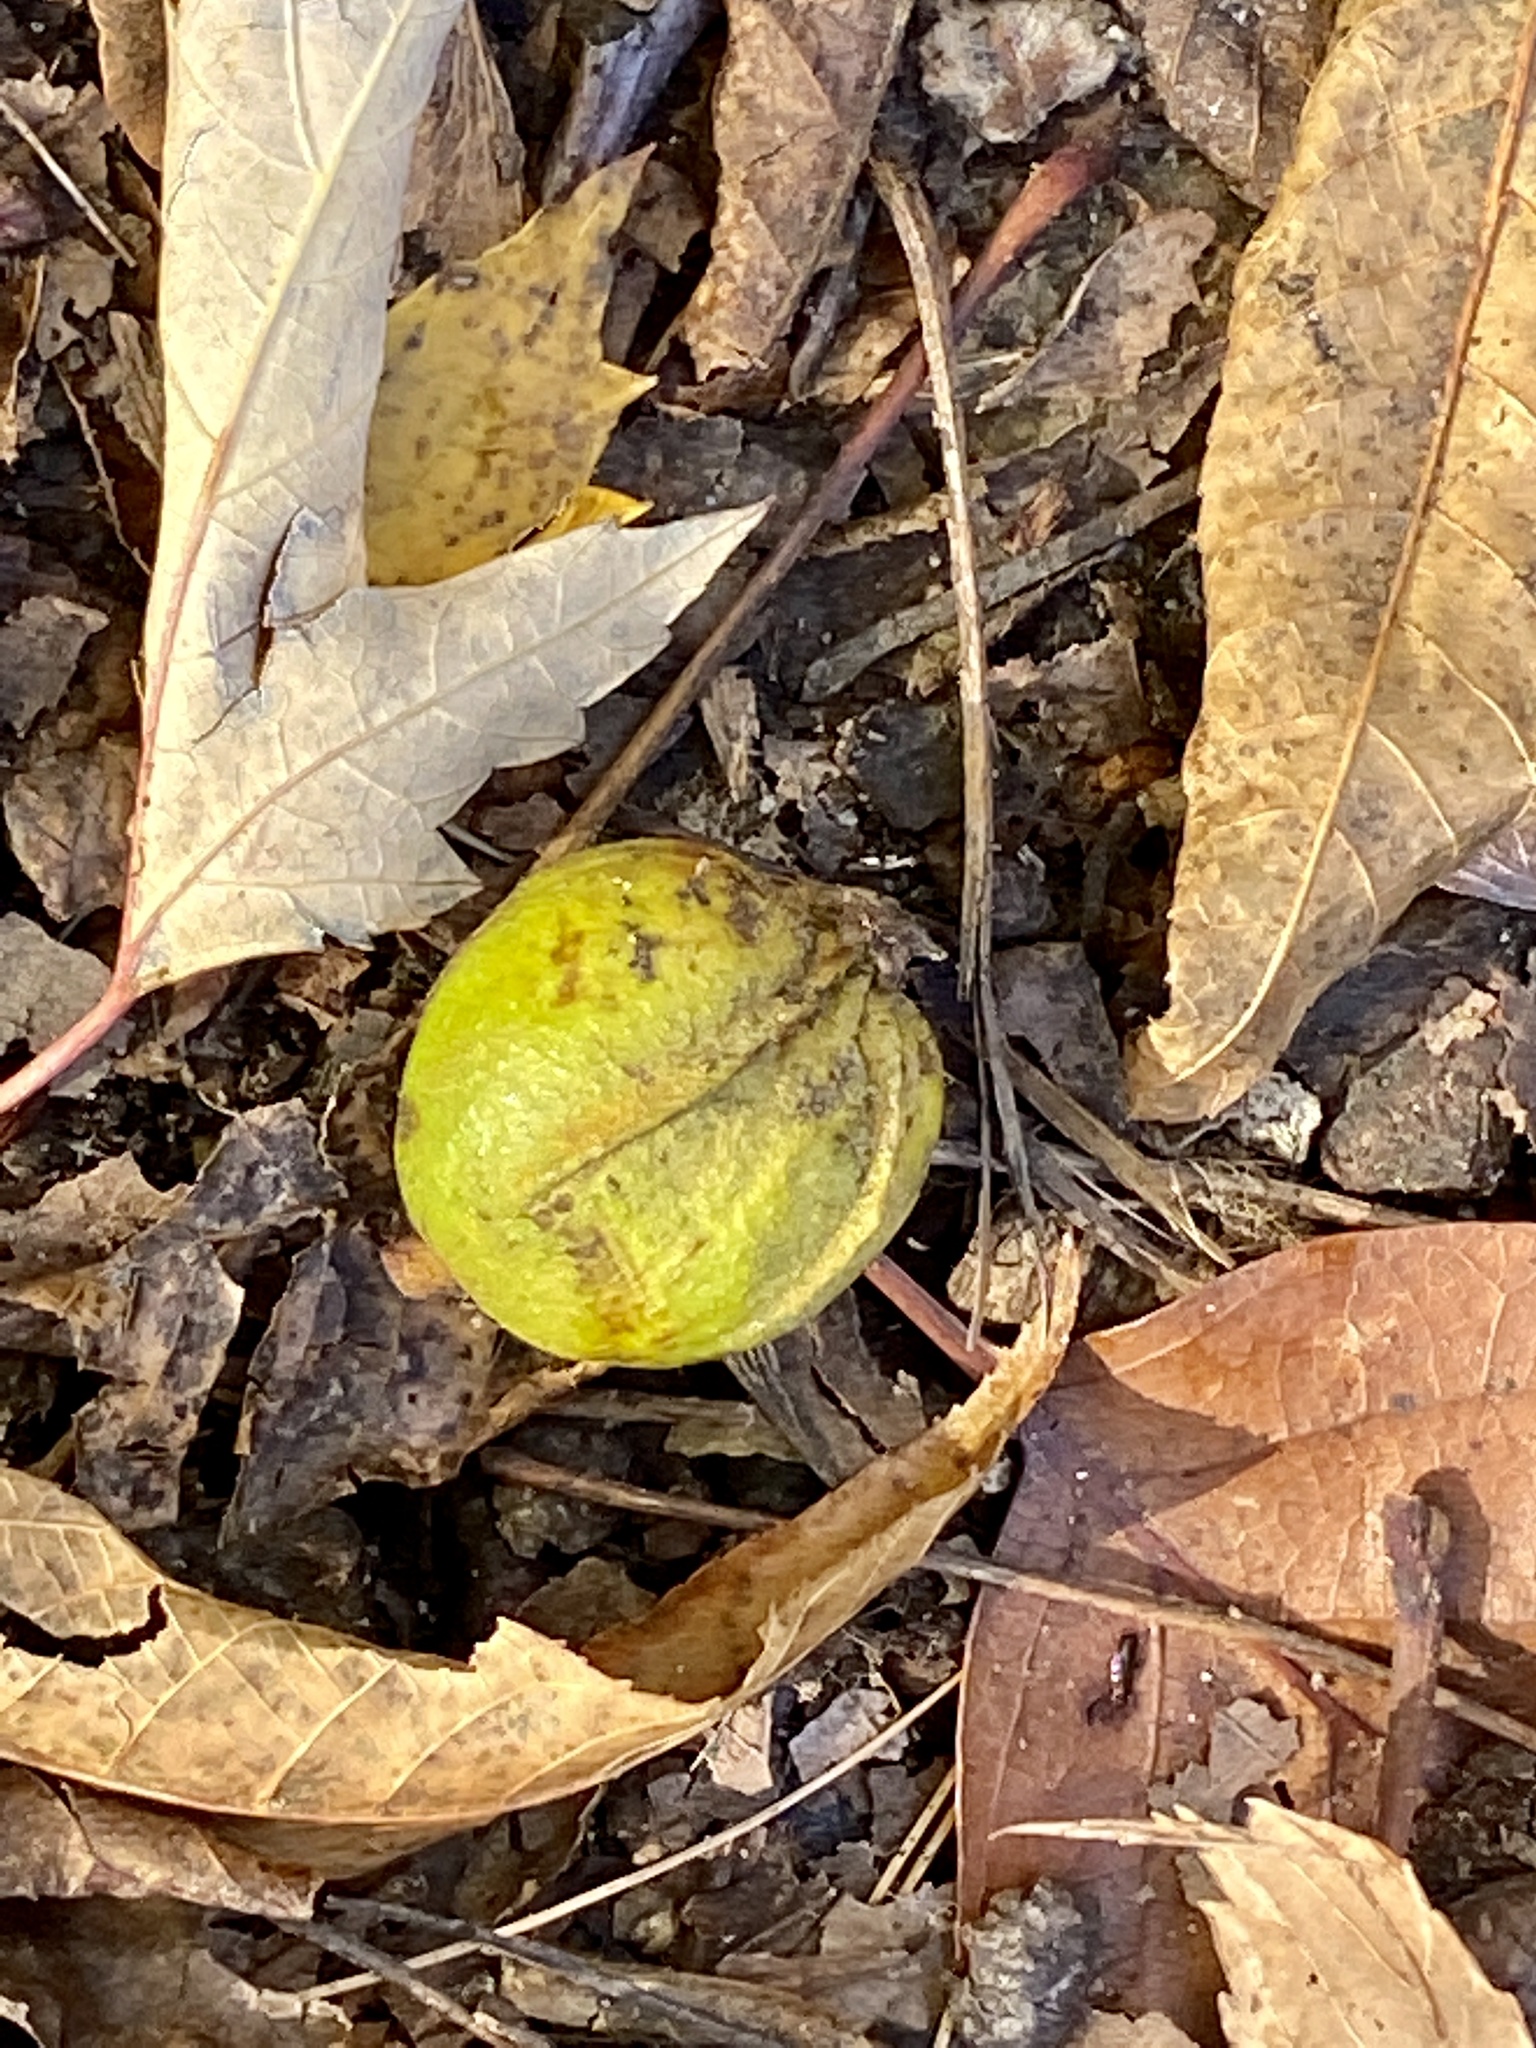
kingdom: Plantae
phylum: Tracheophyta
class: Magnoliopsida
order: Fagales
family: Juglandaceae
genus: Carya
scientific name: Carya cordiformis
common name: Bitternut hickory
